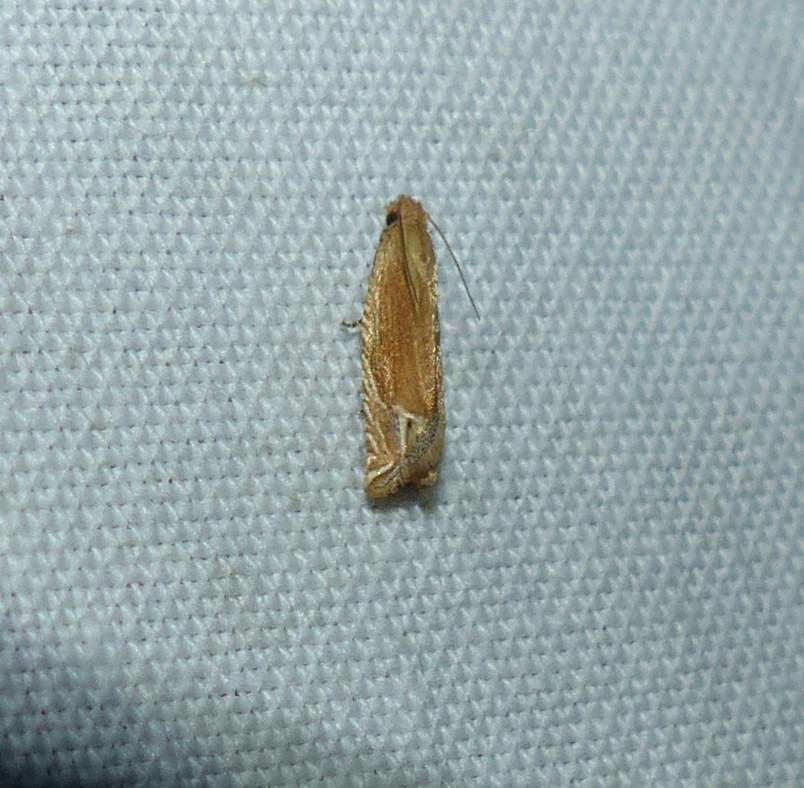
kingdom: Animalia
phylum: Arthropoda
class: Insecta
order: Lepidoptera
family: Tortricidae
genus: Pelochrista
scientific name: Pelochrista cataclystiana
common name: Goldenrod pelochrista moth
